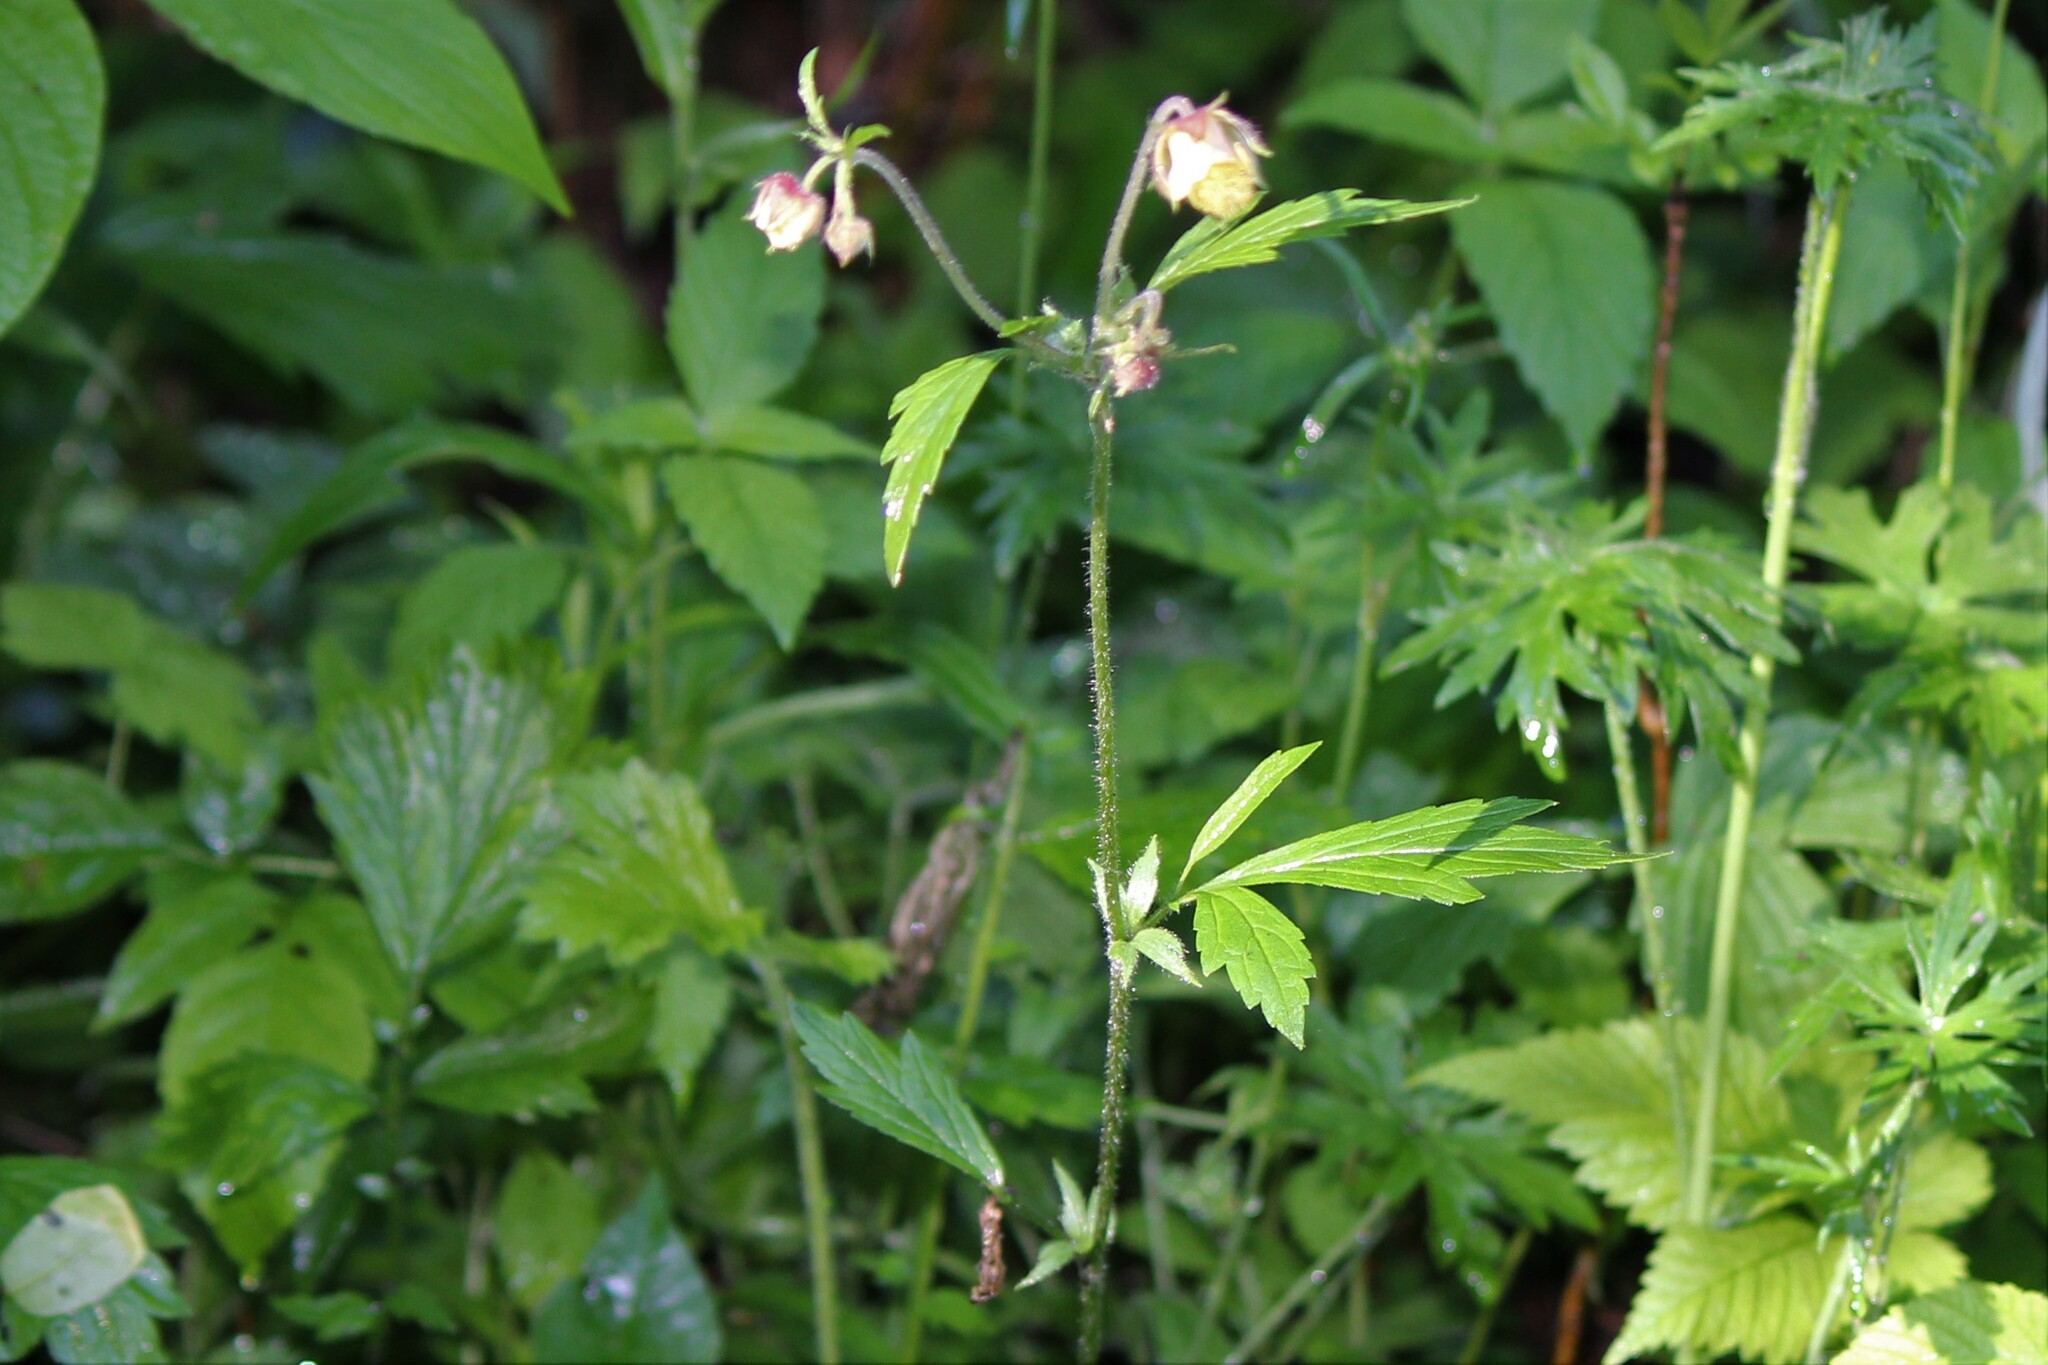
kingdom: Plantae
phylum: Tracheophyta
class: Magnoliopsida
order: Rosales
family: Rosaceae
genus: Geum
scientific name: Geum rivale
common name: Water avens
